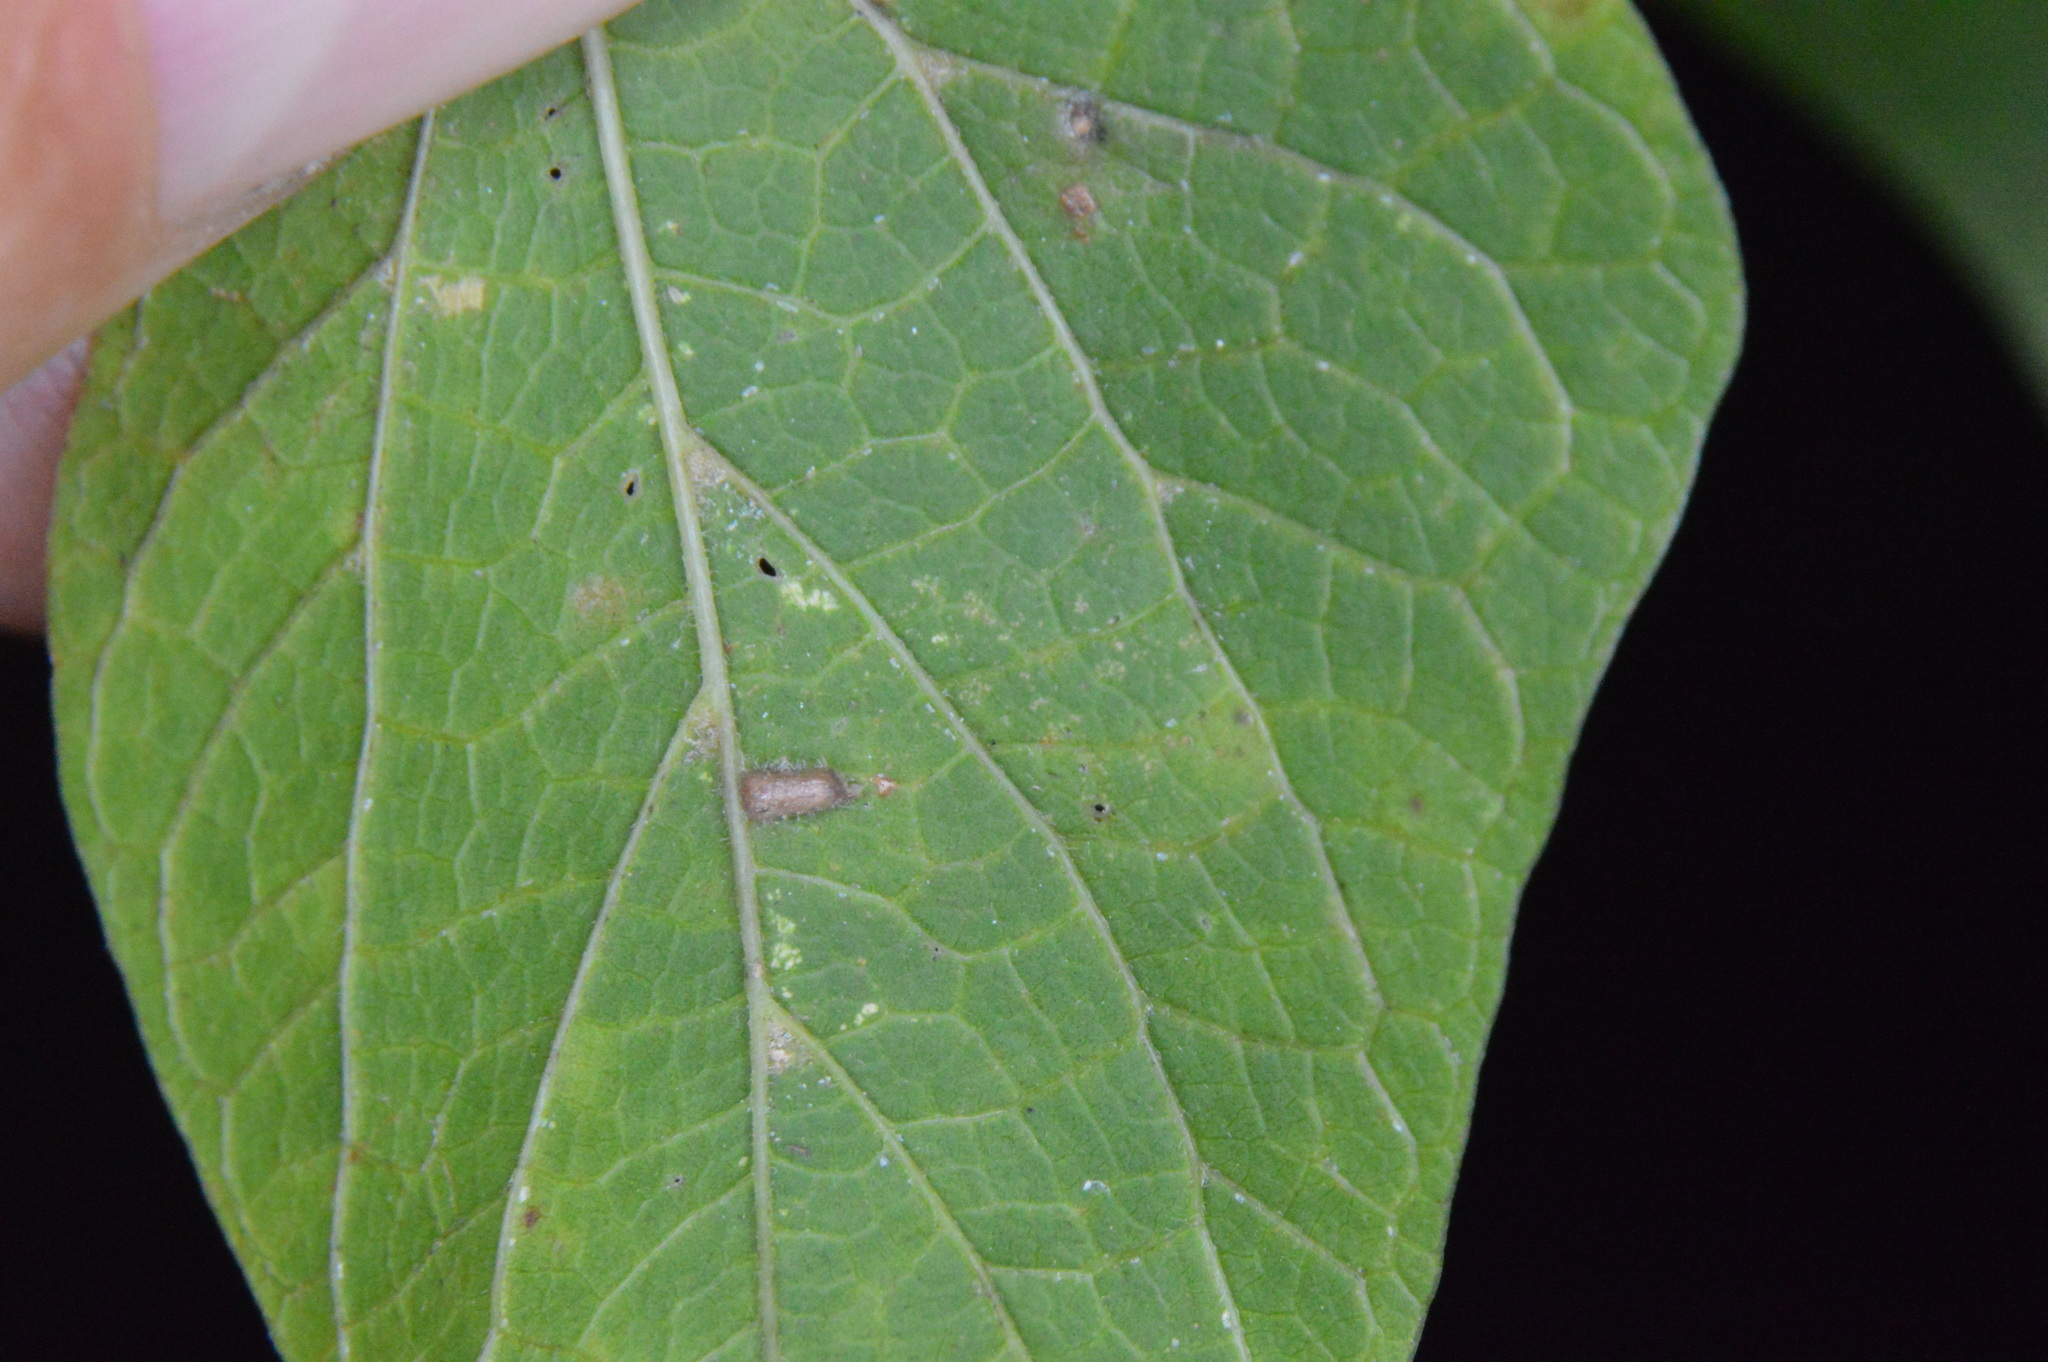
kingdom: Animalia
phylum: Arthropoda
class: Insecta
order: Diptera
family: Cecidomyiidae
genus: Celticecis
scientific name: Celticecis supina
